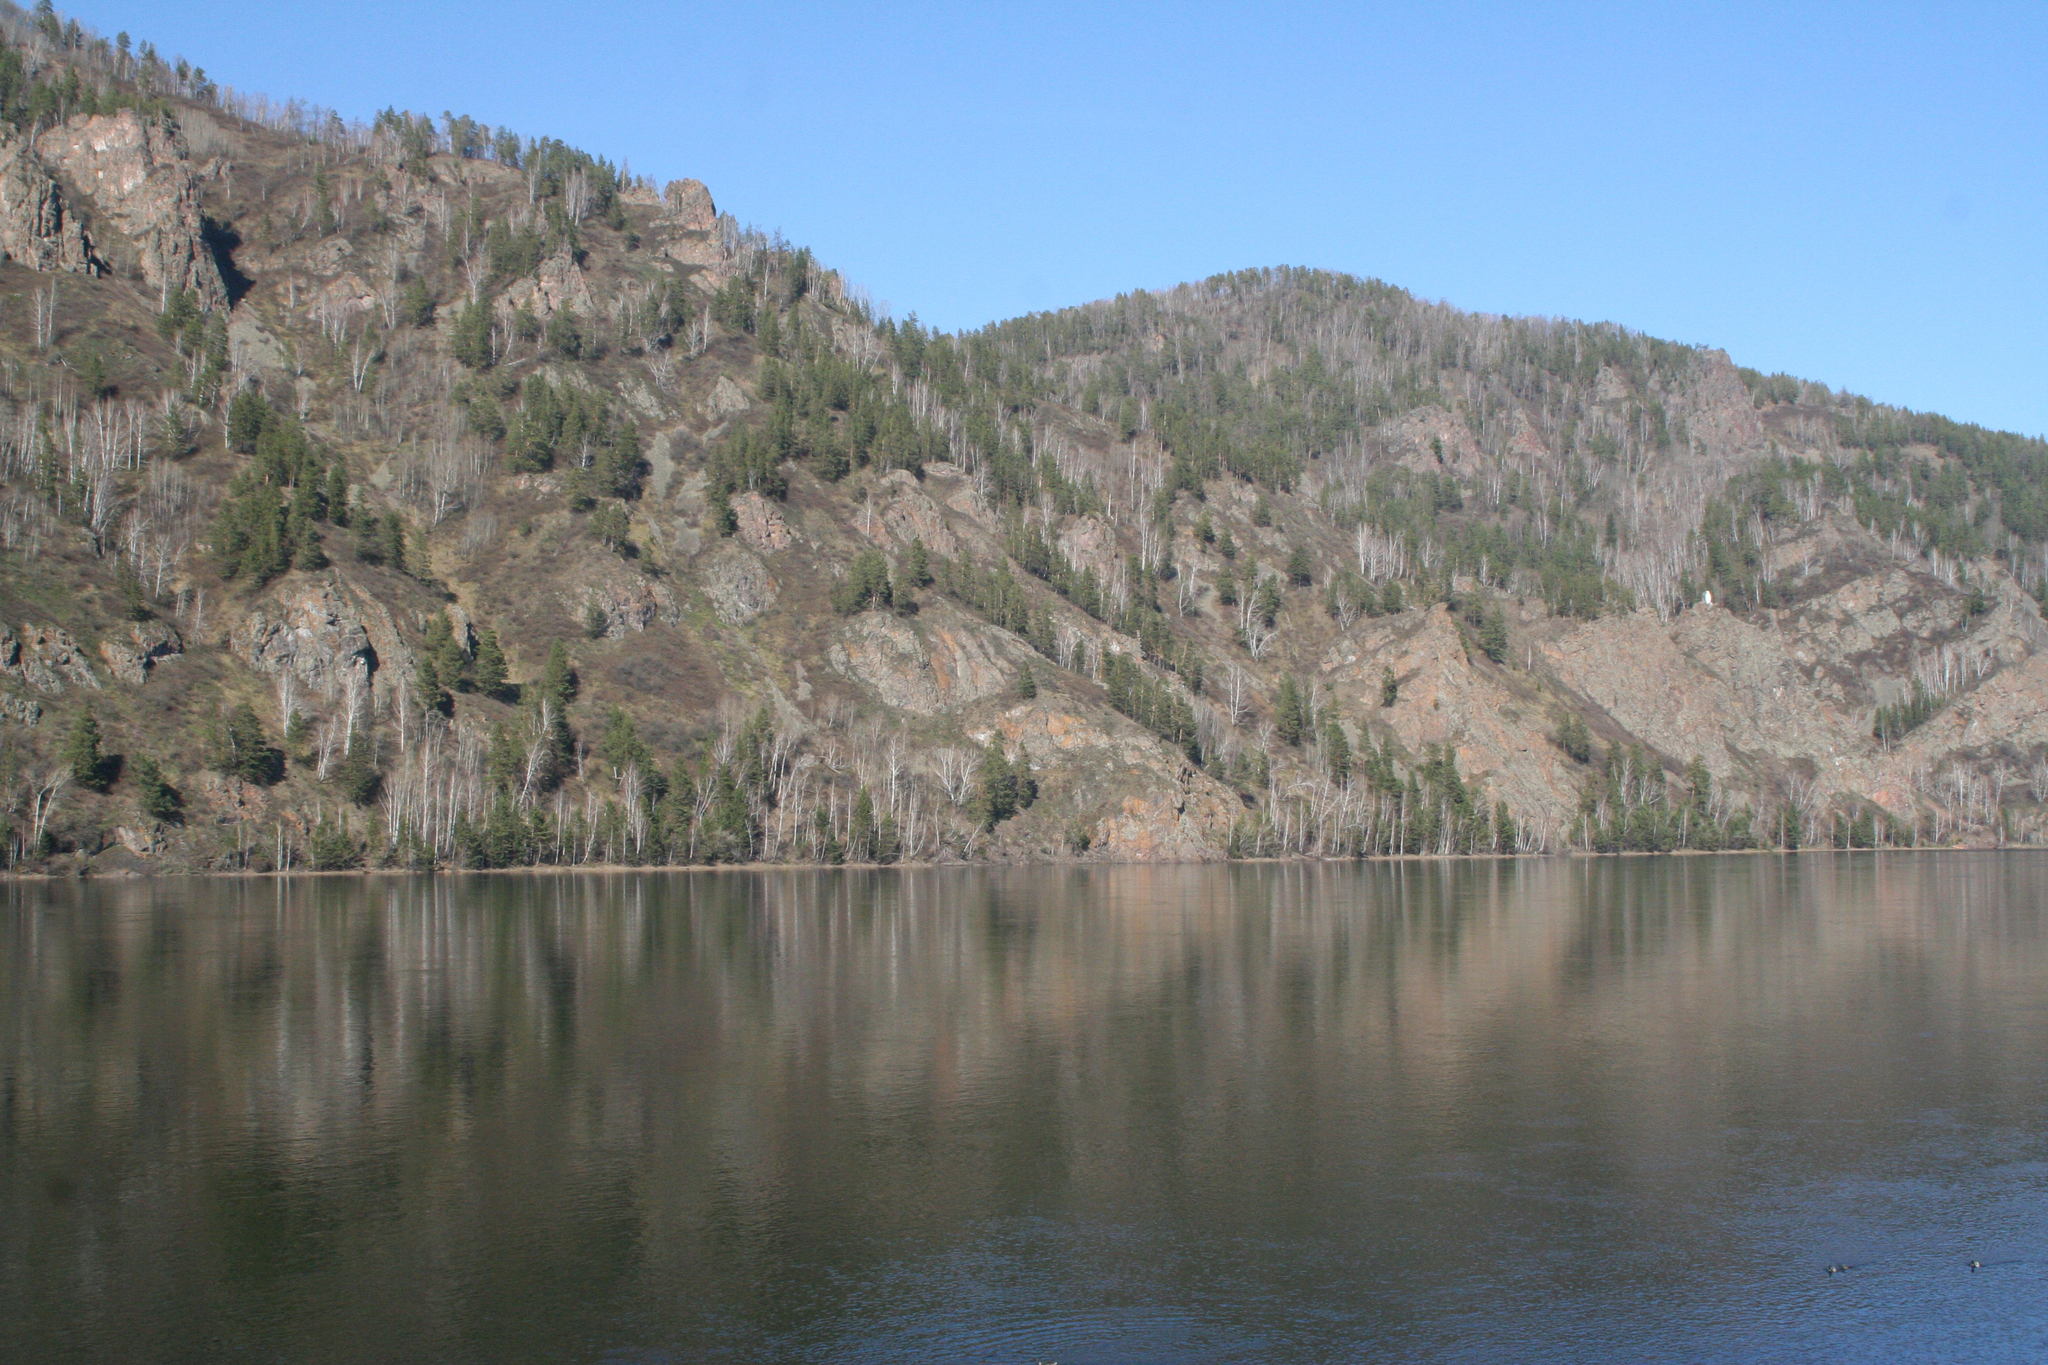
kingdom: Plantae
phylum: Tracheophyta
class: Magnoliopsida
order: Fagales
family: Betulaceae
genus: Betula
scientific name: Betula pendula
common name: Silver birch
